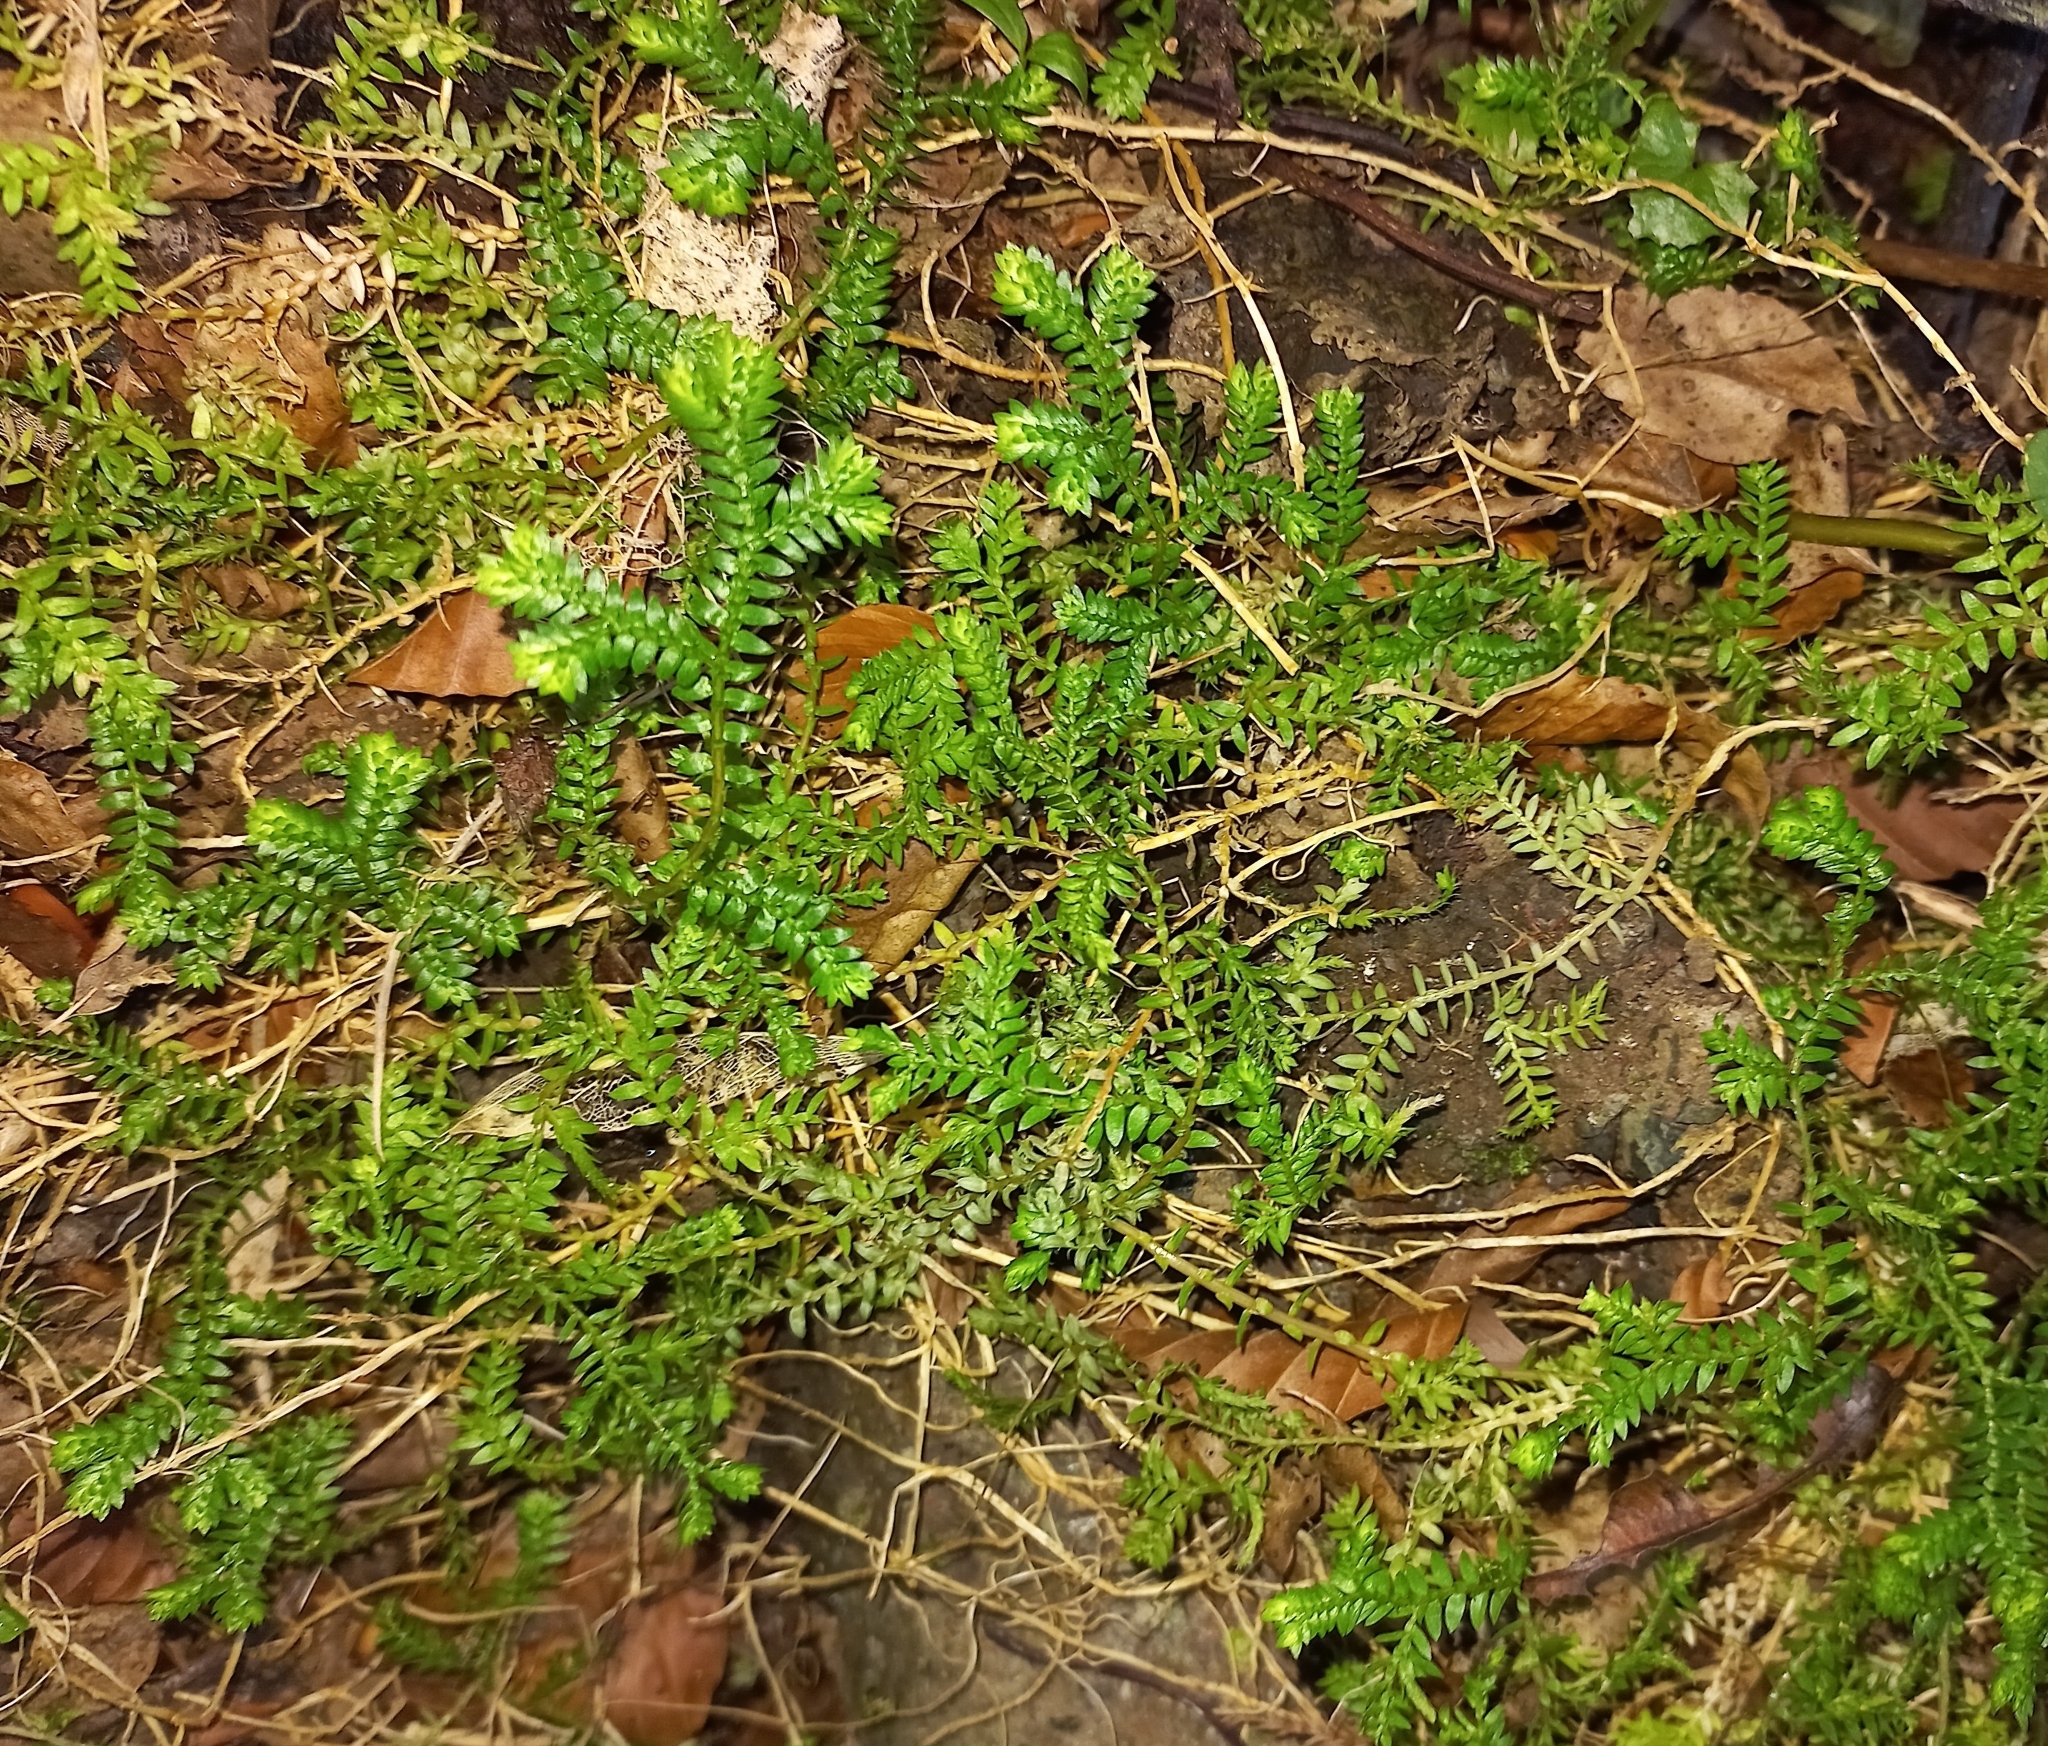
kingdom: Plantae
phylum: Tracheophyta
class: Lycopodiopsida
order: Selaginellales
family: Selaginellaceae
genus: Selaginella
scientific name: Selaginella kraussiana
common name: Krauss' spikemoss
